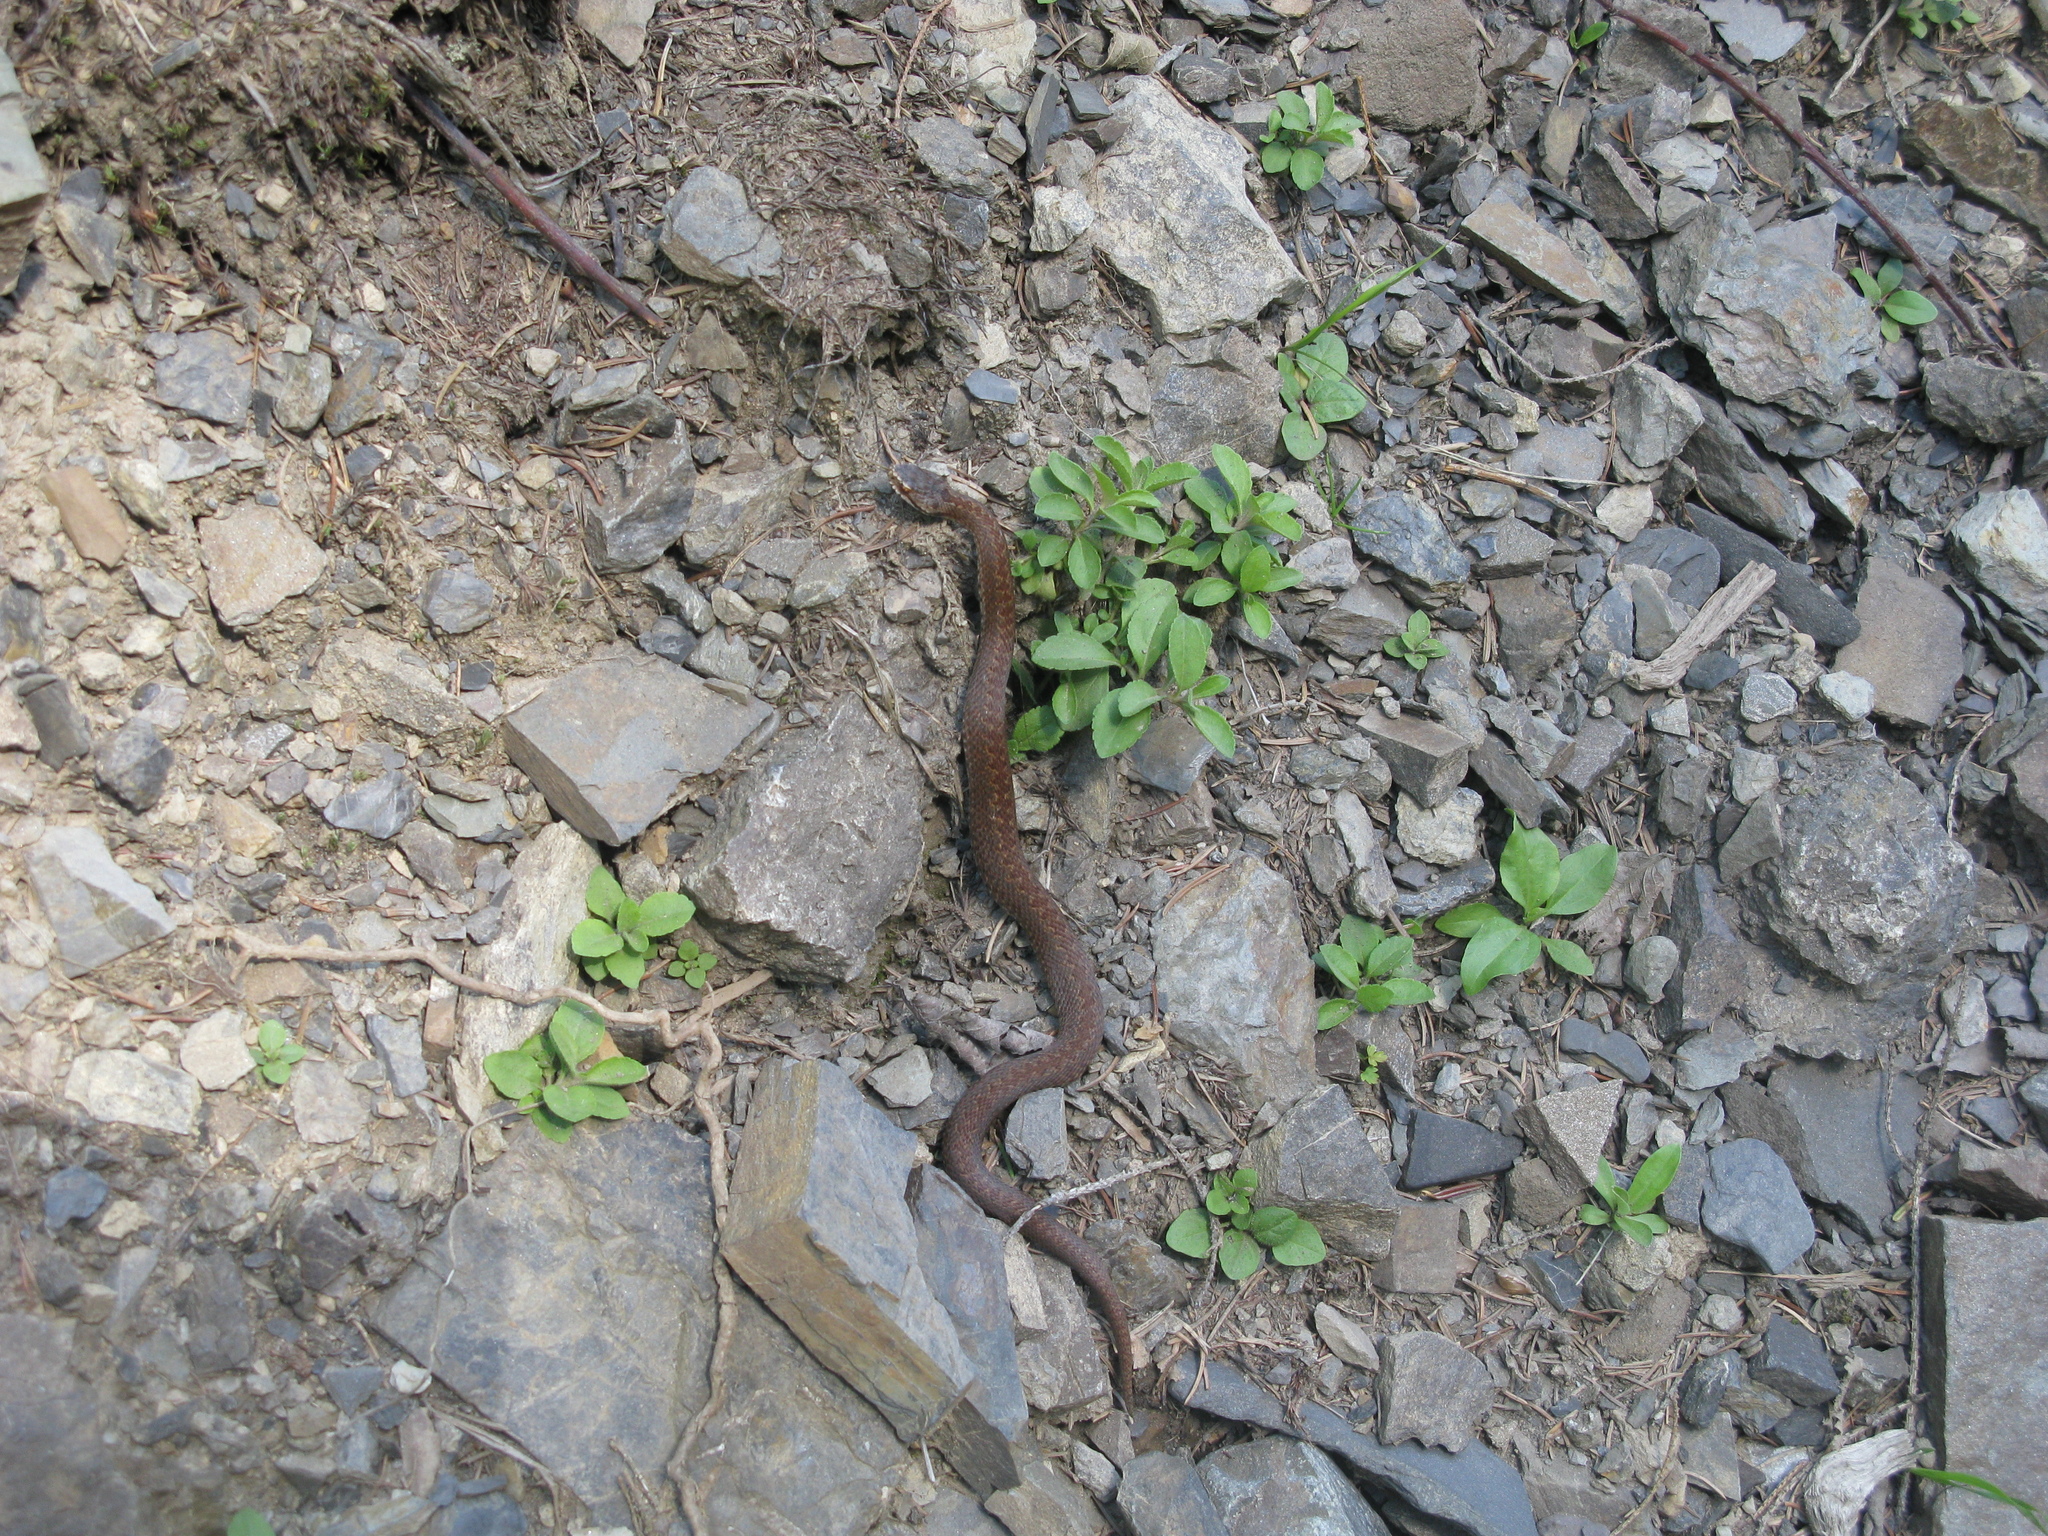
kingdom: Animalia
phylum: Chordata
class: Squamata
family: Viperidae
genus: Vipera
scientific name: Vipera berus
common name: Adder
